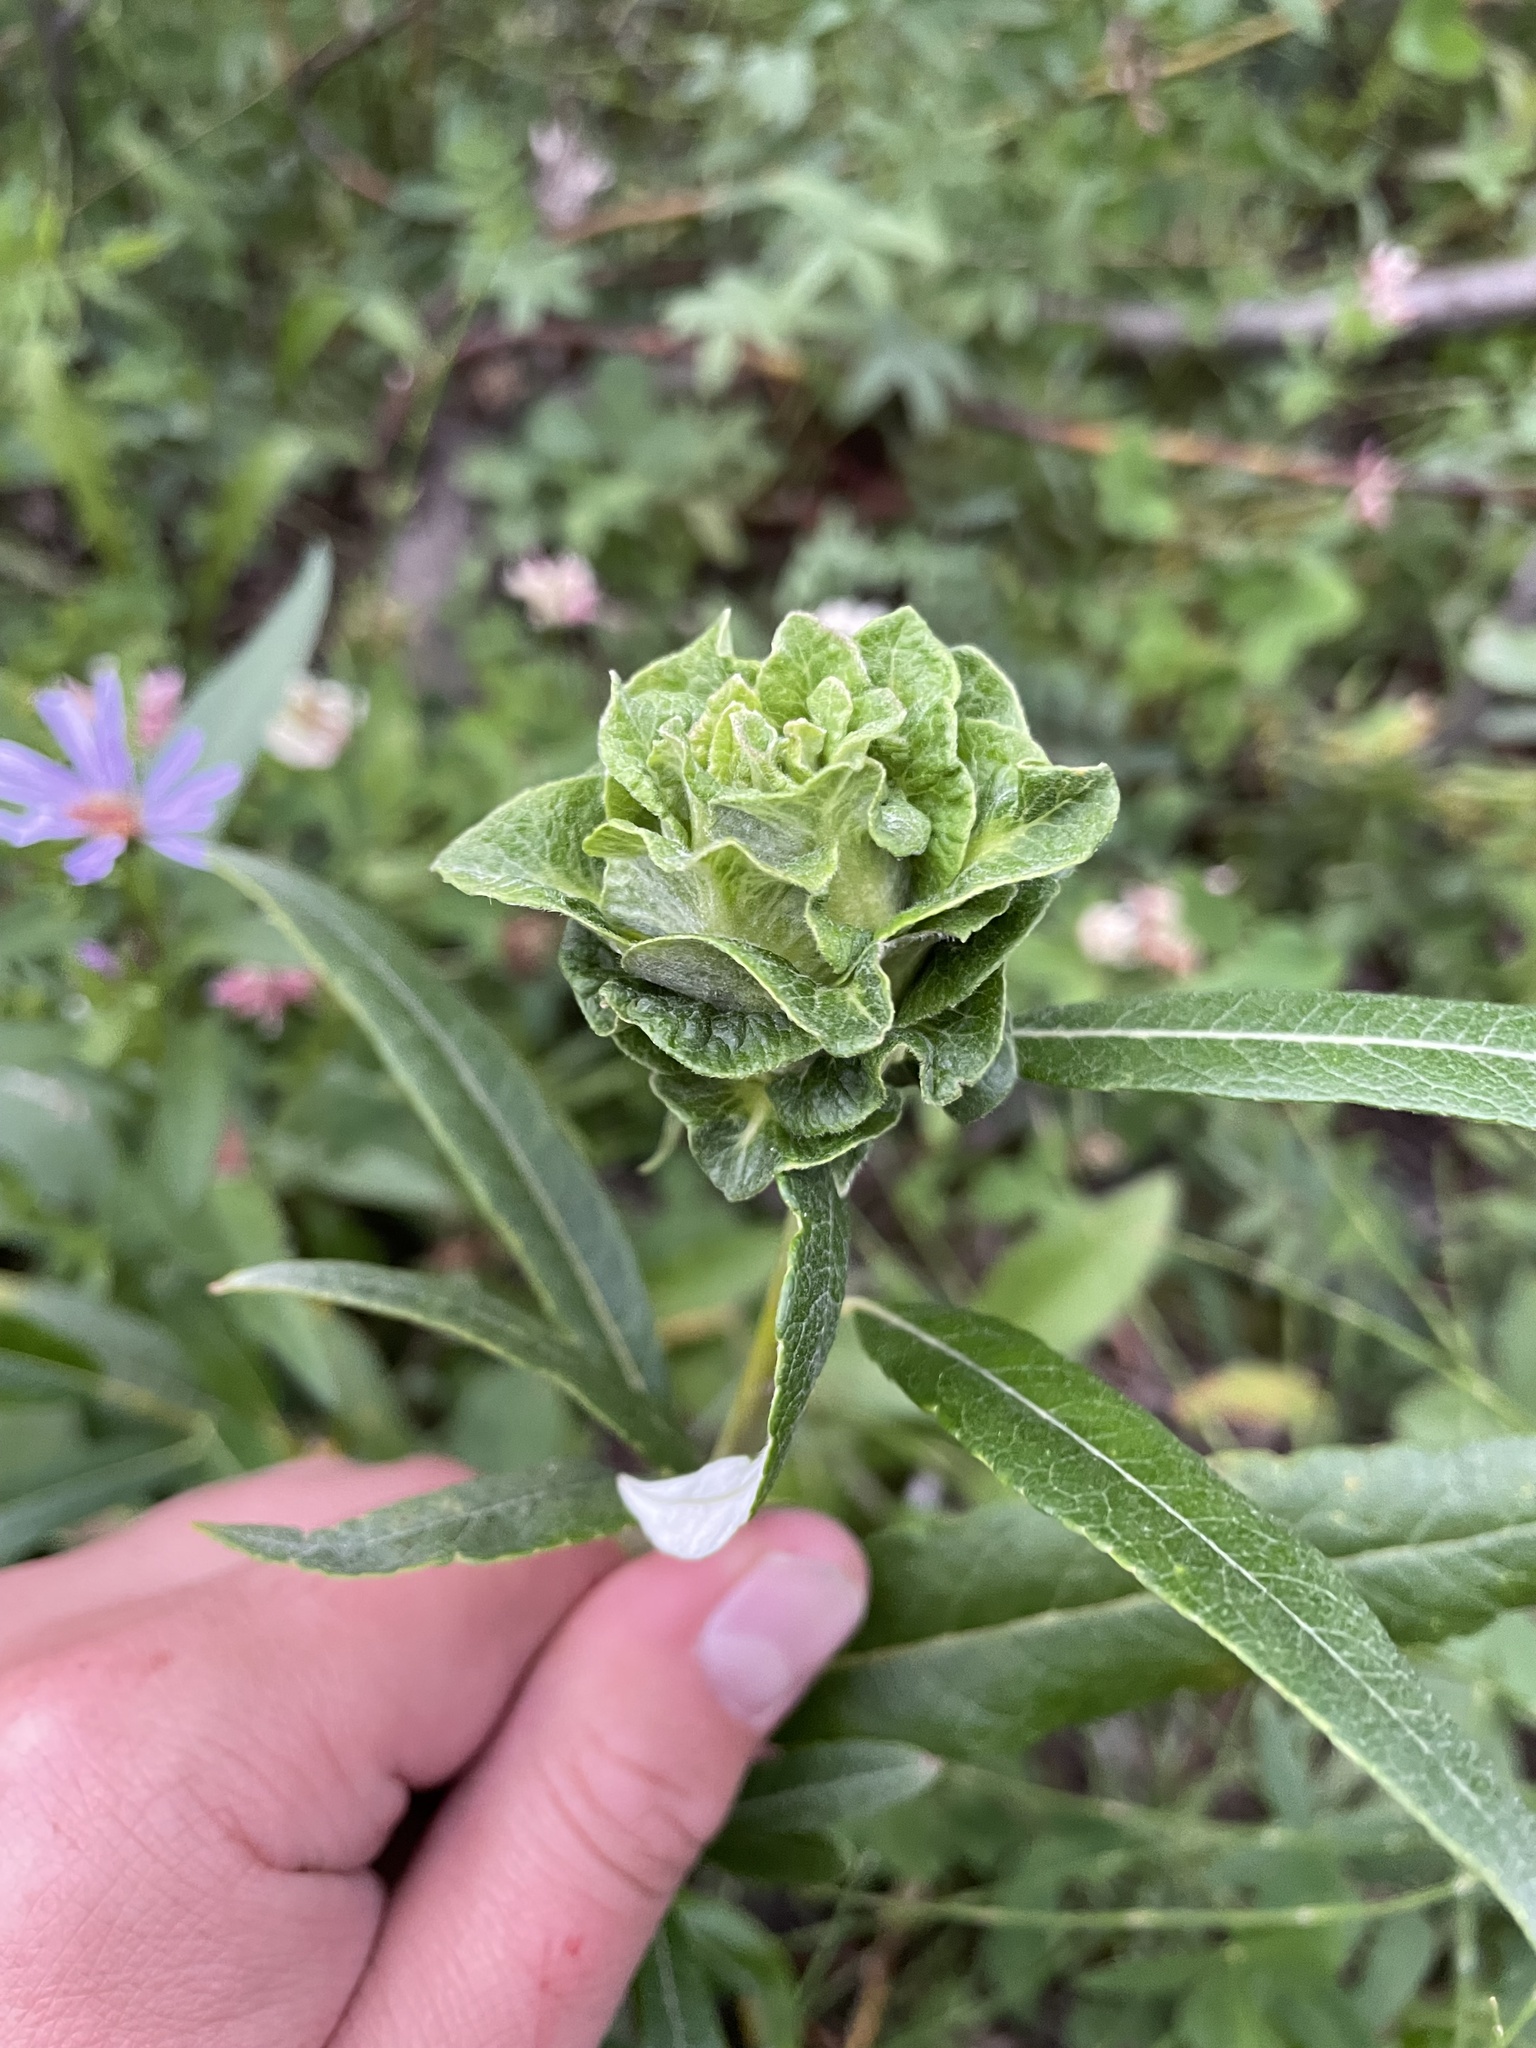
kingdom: Animalia
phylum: Arthropoda
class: Insecta
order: Diptera
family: Cecidomyiidae
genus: Rabdophaga
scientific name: Rabdophaga rosaria
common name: Willow rose gall midge
